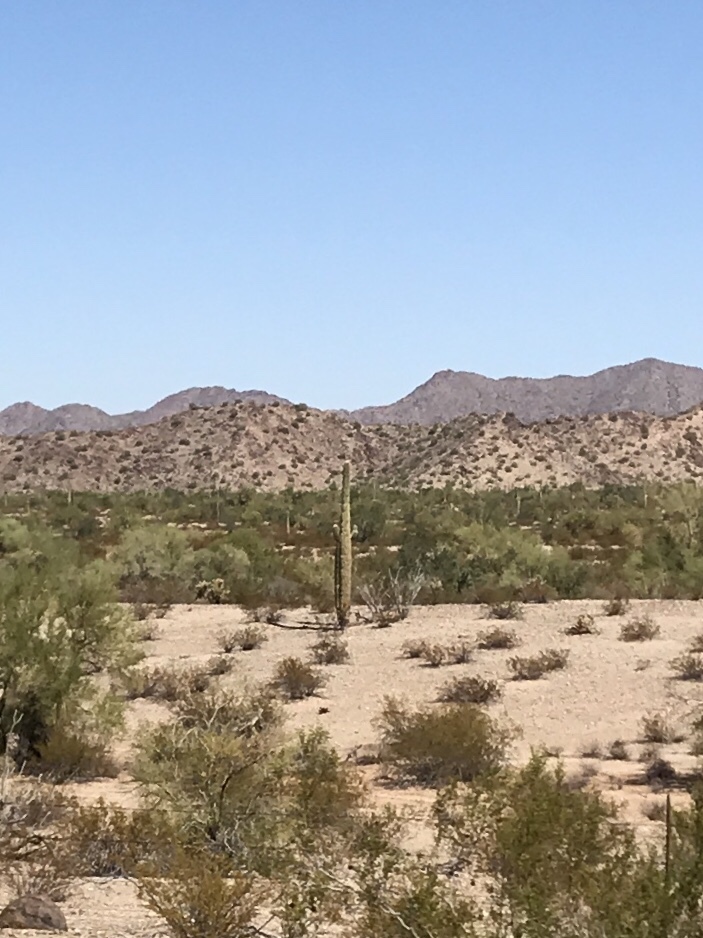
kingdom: Plantae
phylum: Tracheophyta
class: Magnoliopsida
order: Caryophyllales
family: Cactaceae
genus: Carnegiea
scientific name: Carnegiea gigantea
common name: Saguaro
